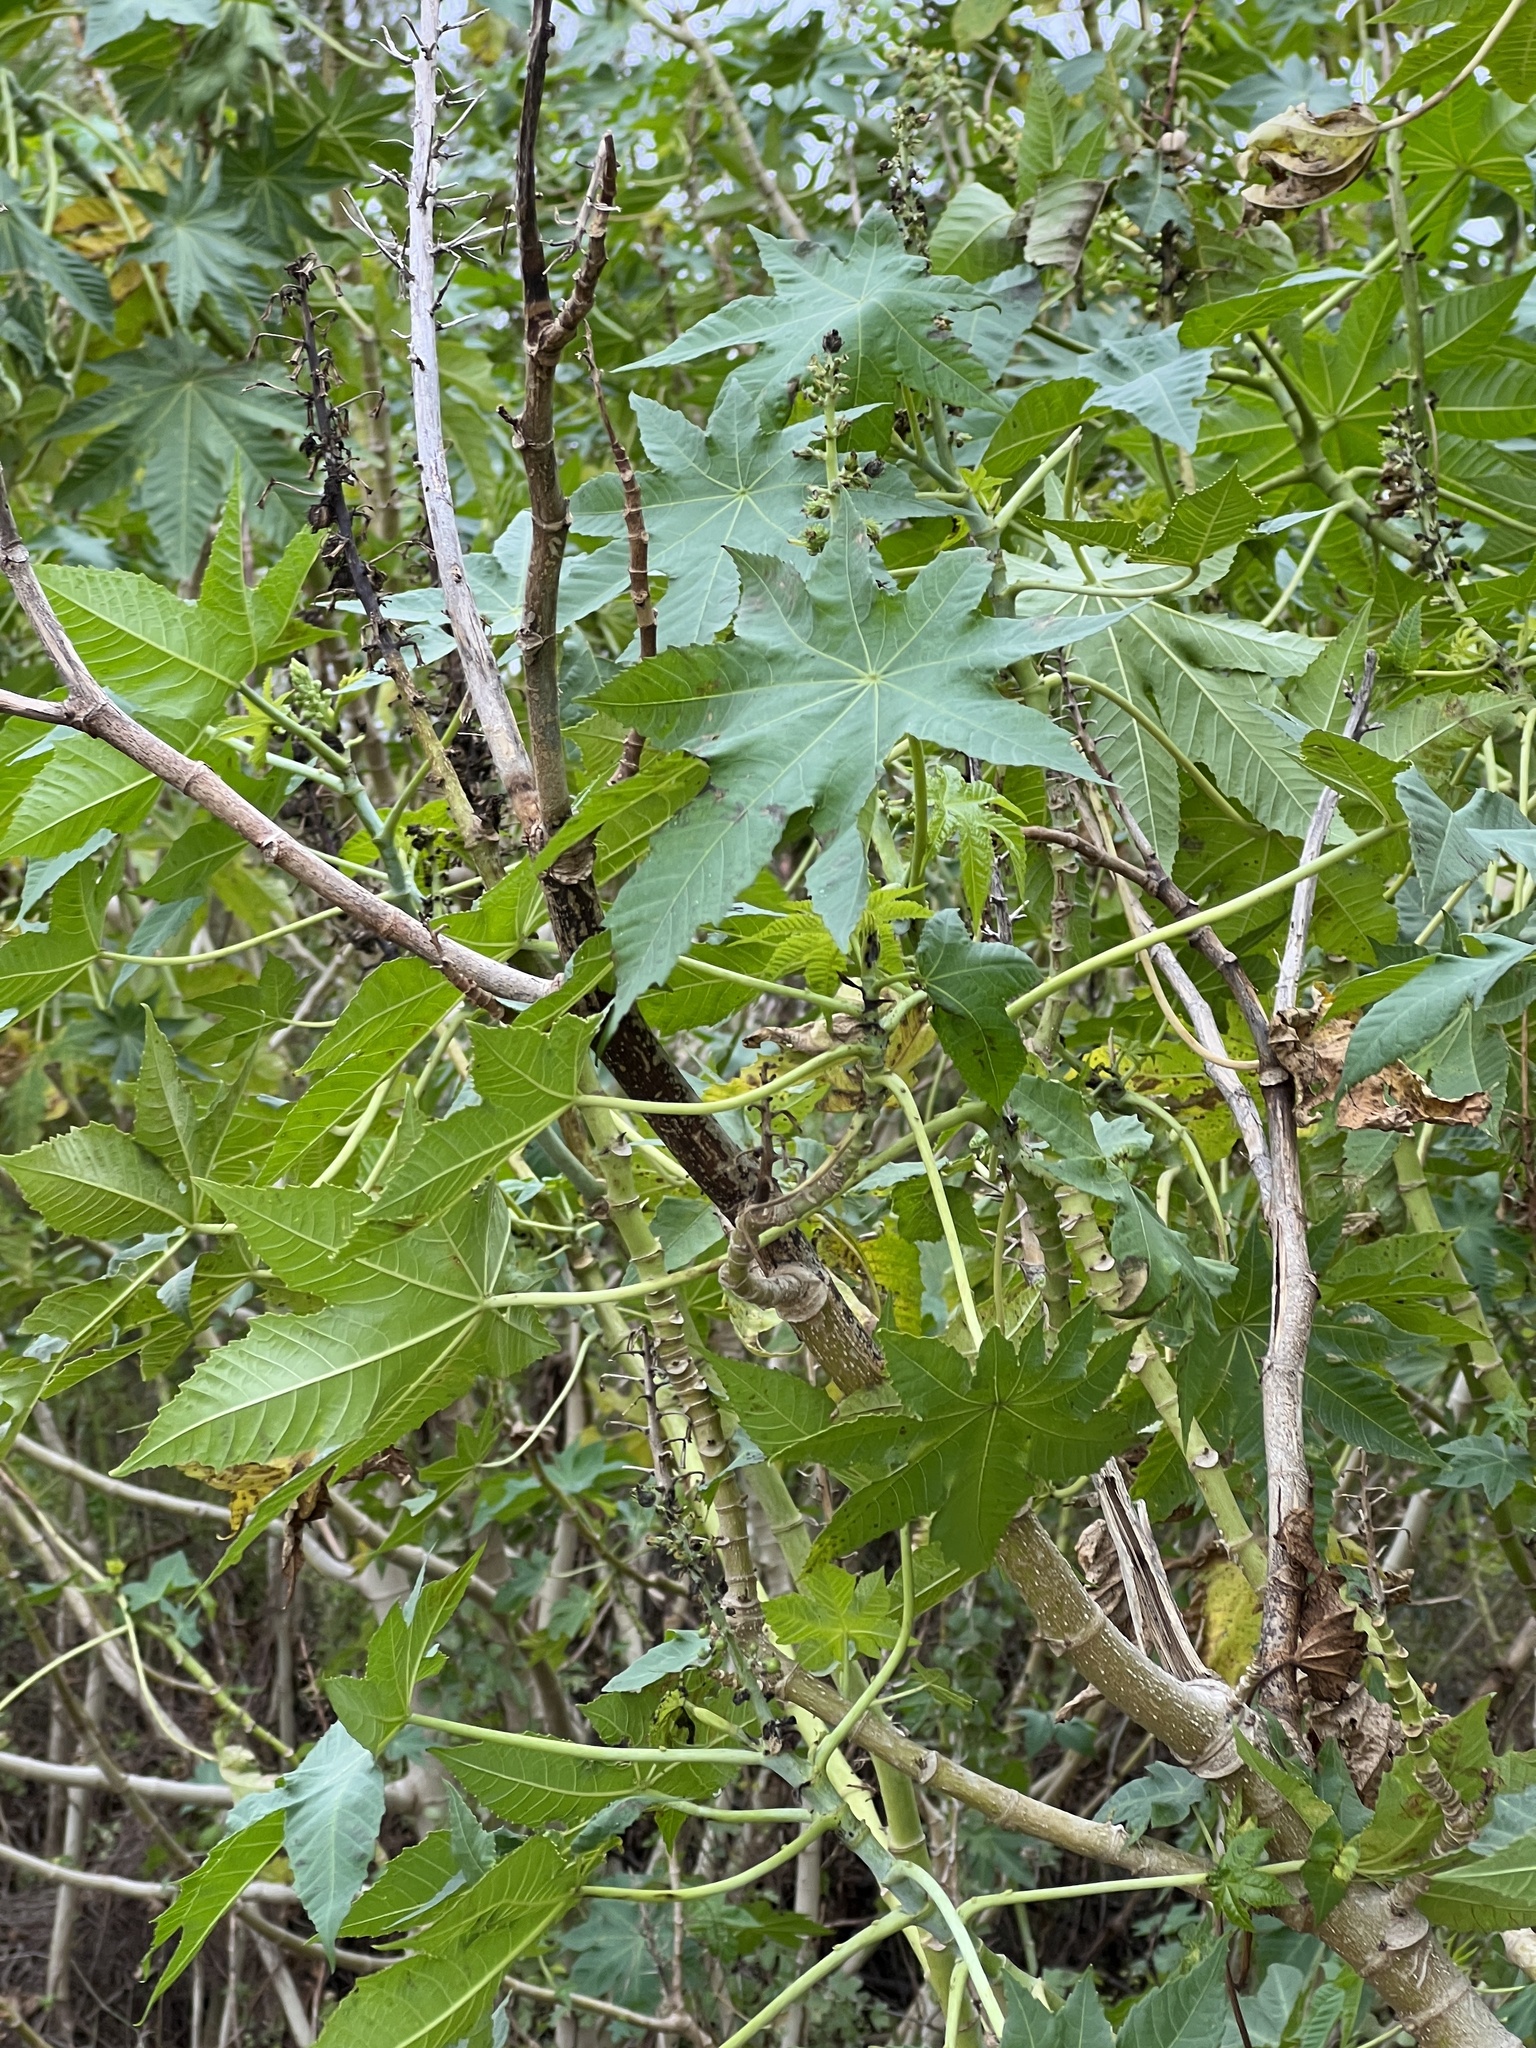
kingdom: Plantae
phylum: Tracheophyta
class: Magnoliopsida
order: Malpighiales
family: Euphorbiaceae
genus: Ricinus
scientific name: Ricinus communis
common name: Castor-oil-plant
